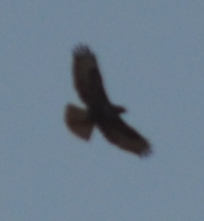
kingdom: Animalia
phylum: Chordata
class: Aves
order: Accipitriformes
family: Accipitridae
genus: Buteo
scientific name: Buteo buteo
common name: Common buzzard
